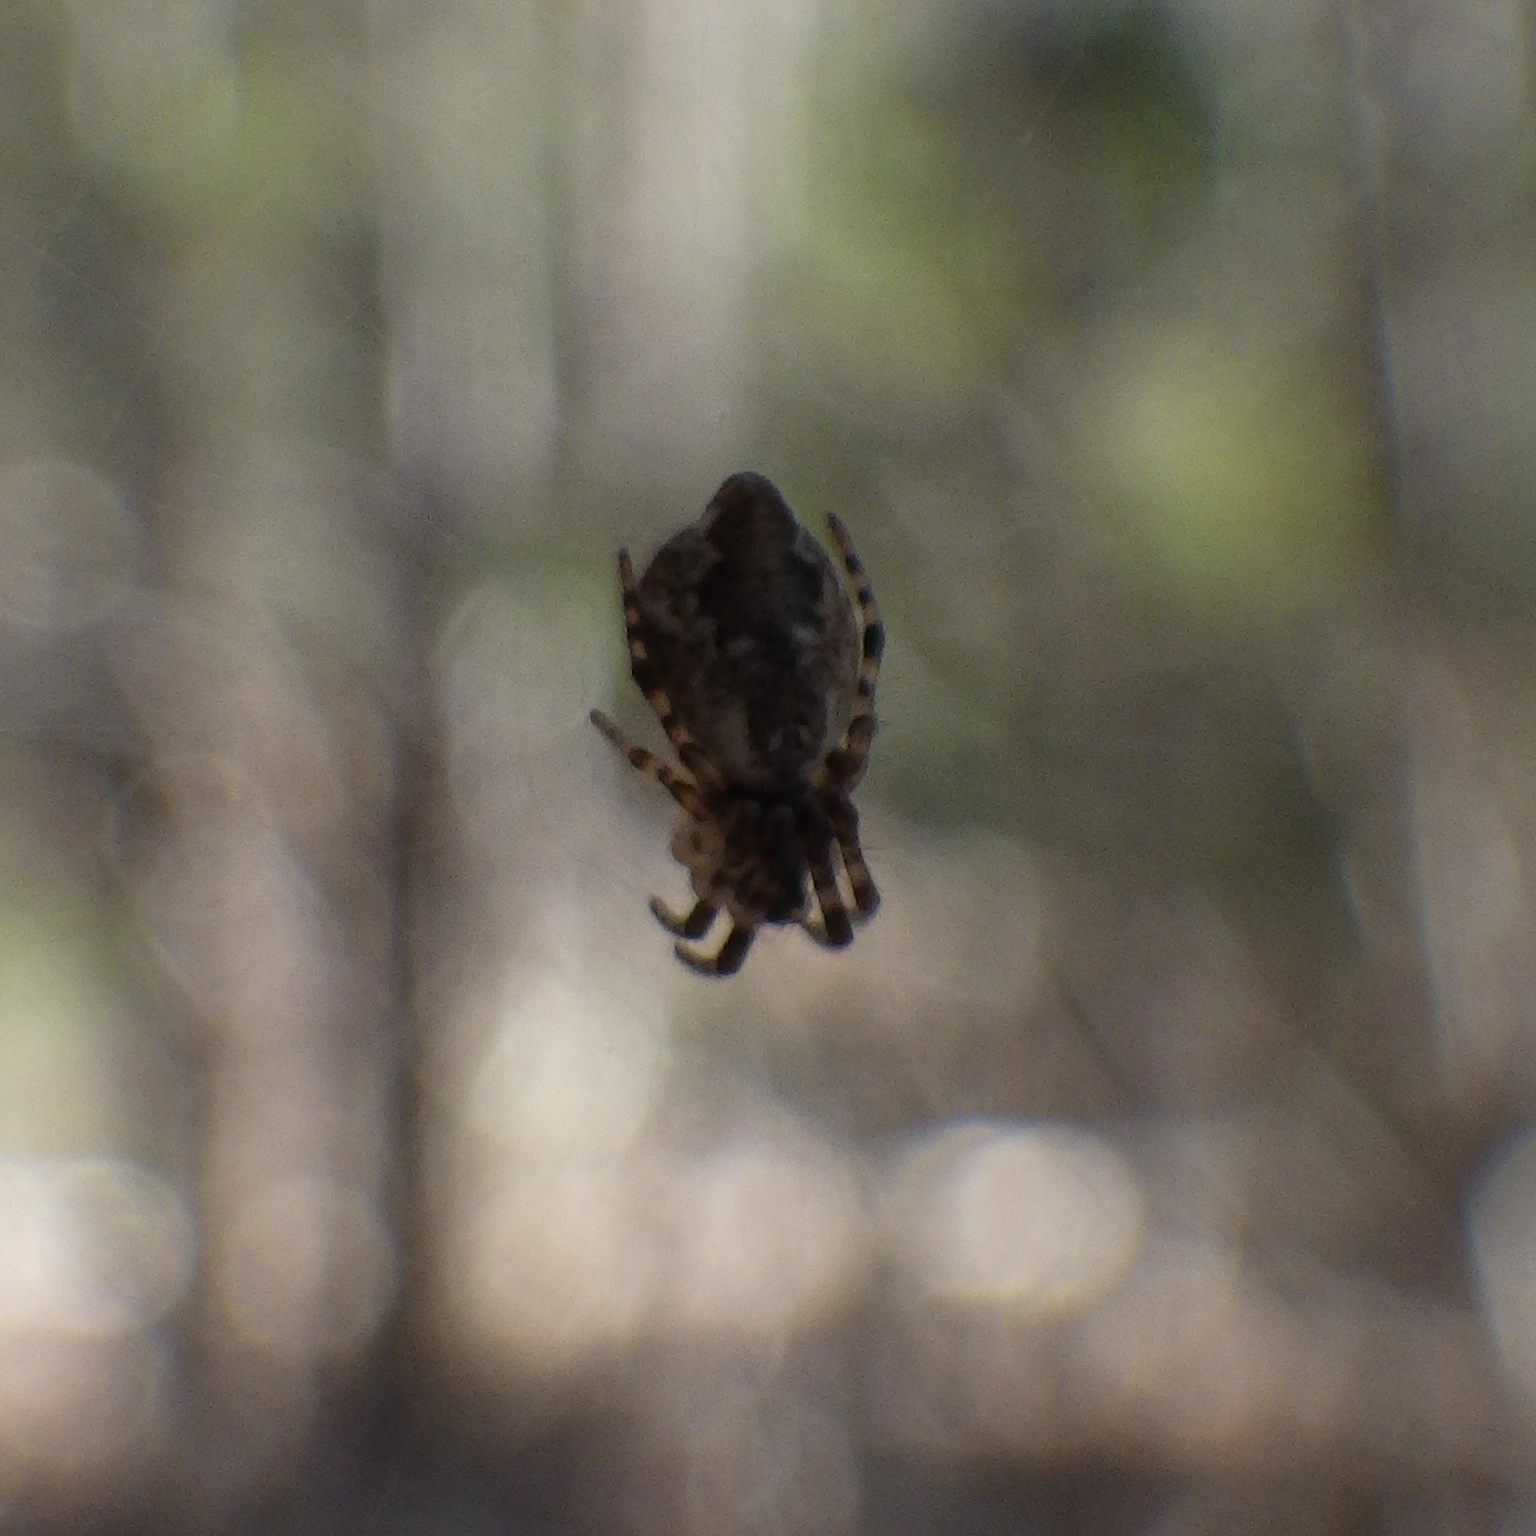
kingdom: Animalia
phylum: Arthropoda
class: Arachnida
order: Araneae
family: Araneidae
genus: Cyclosa
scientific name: Cyclosa conica
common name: Conical trashline orbweaver
